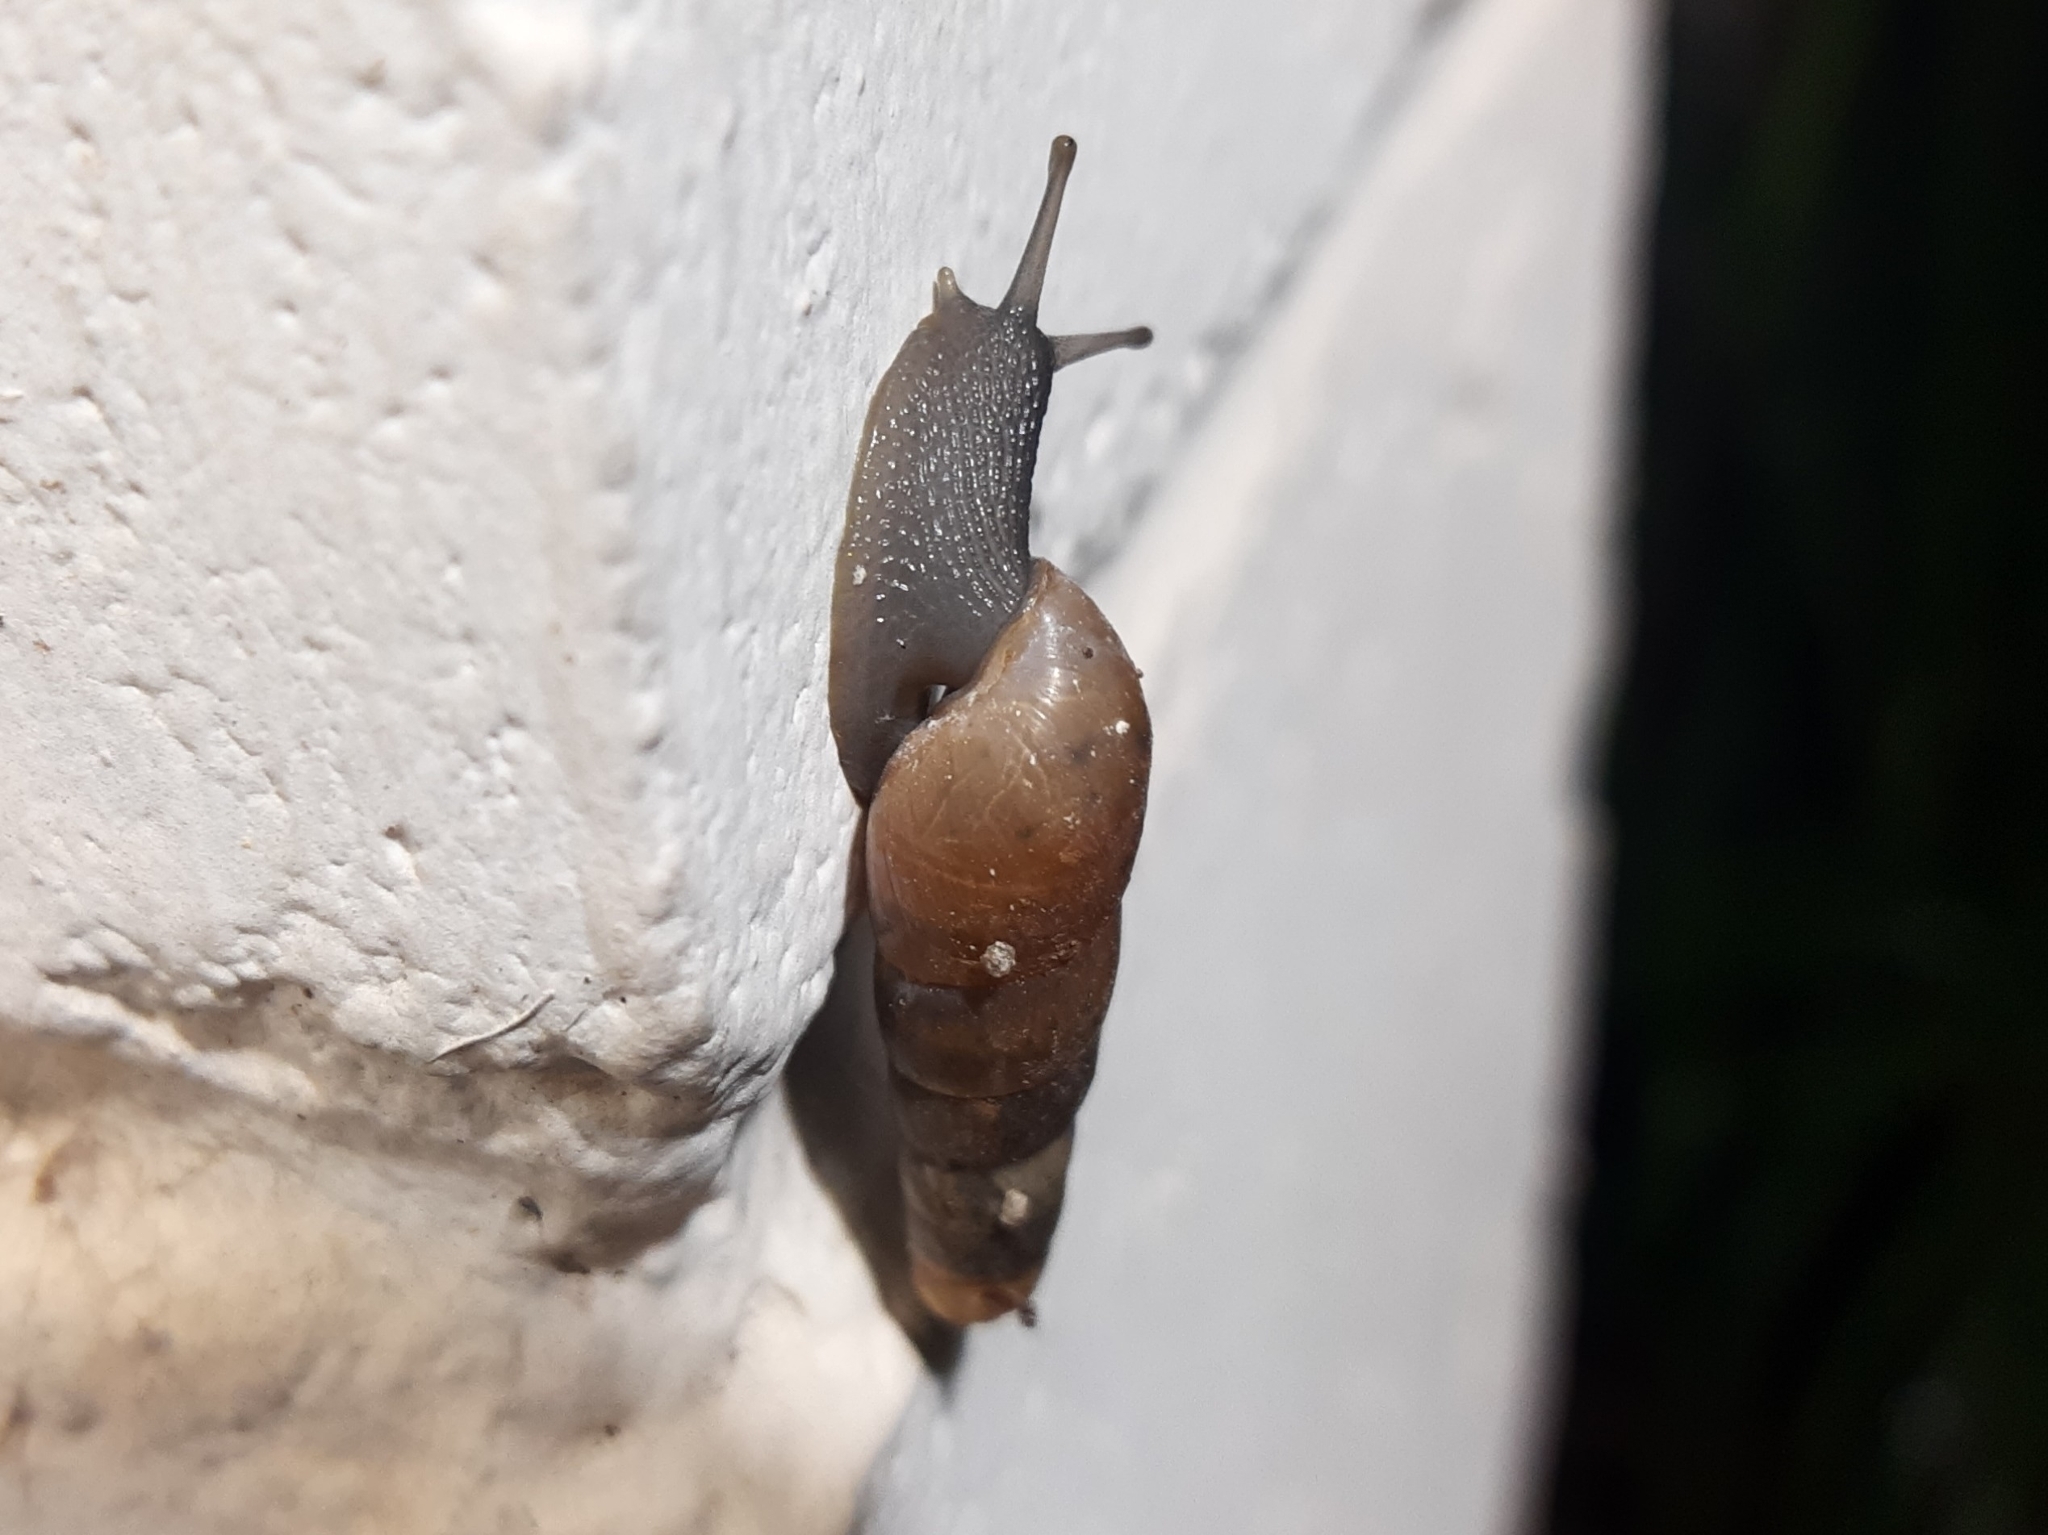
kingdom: Animalia
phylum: Mollusca
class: Gastropoda
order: Stylommatophora
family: Achatinidae
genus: Rumina
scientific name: Rumina decollata
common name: Decollate snail
